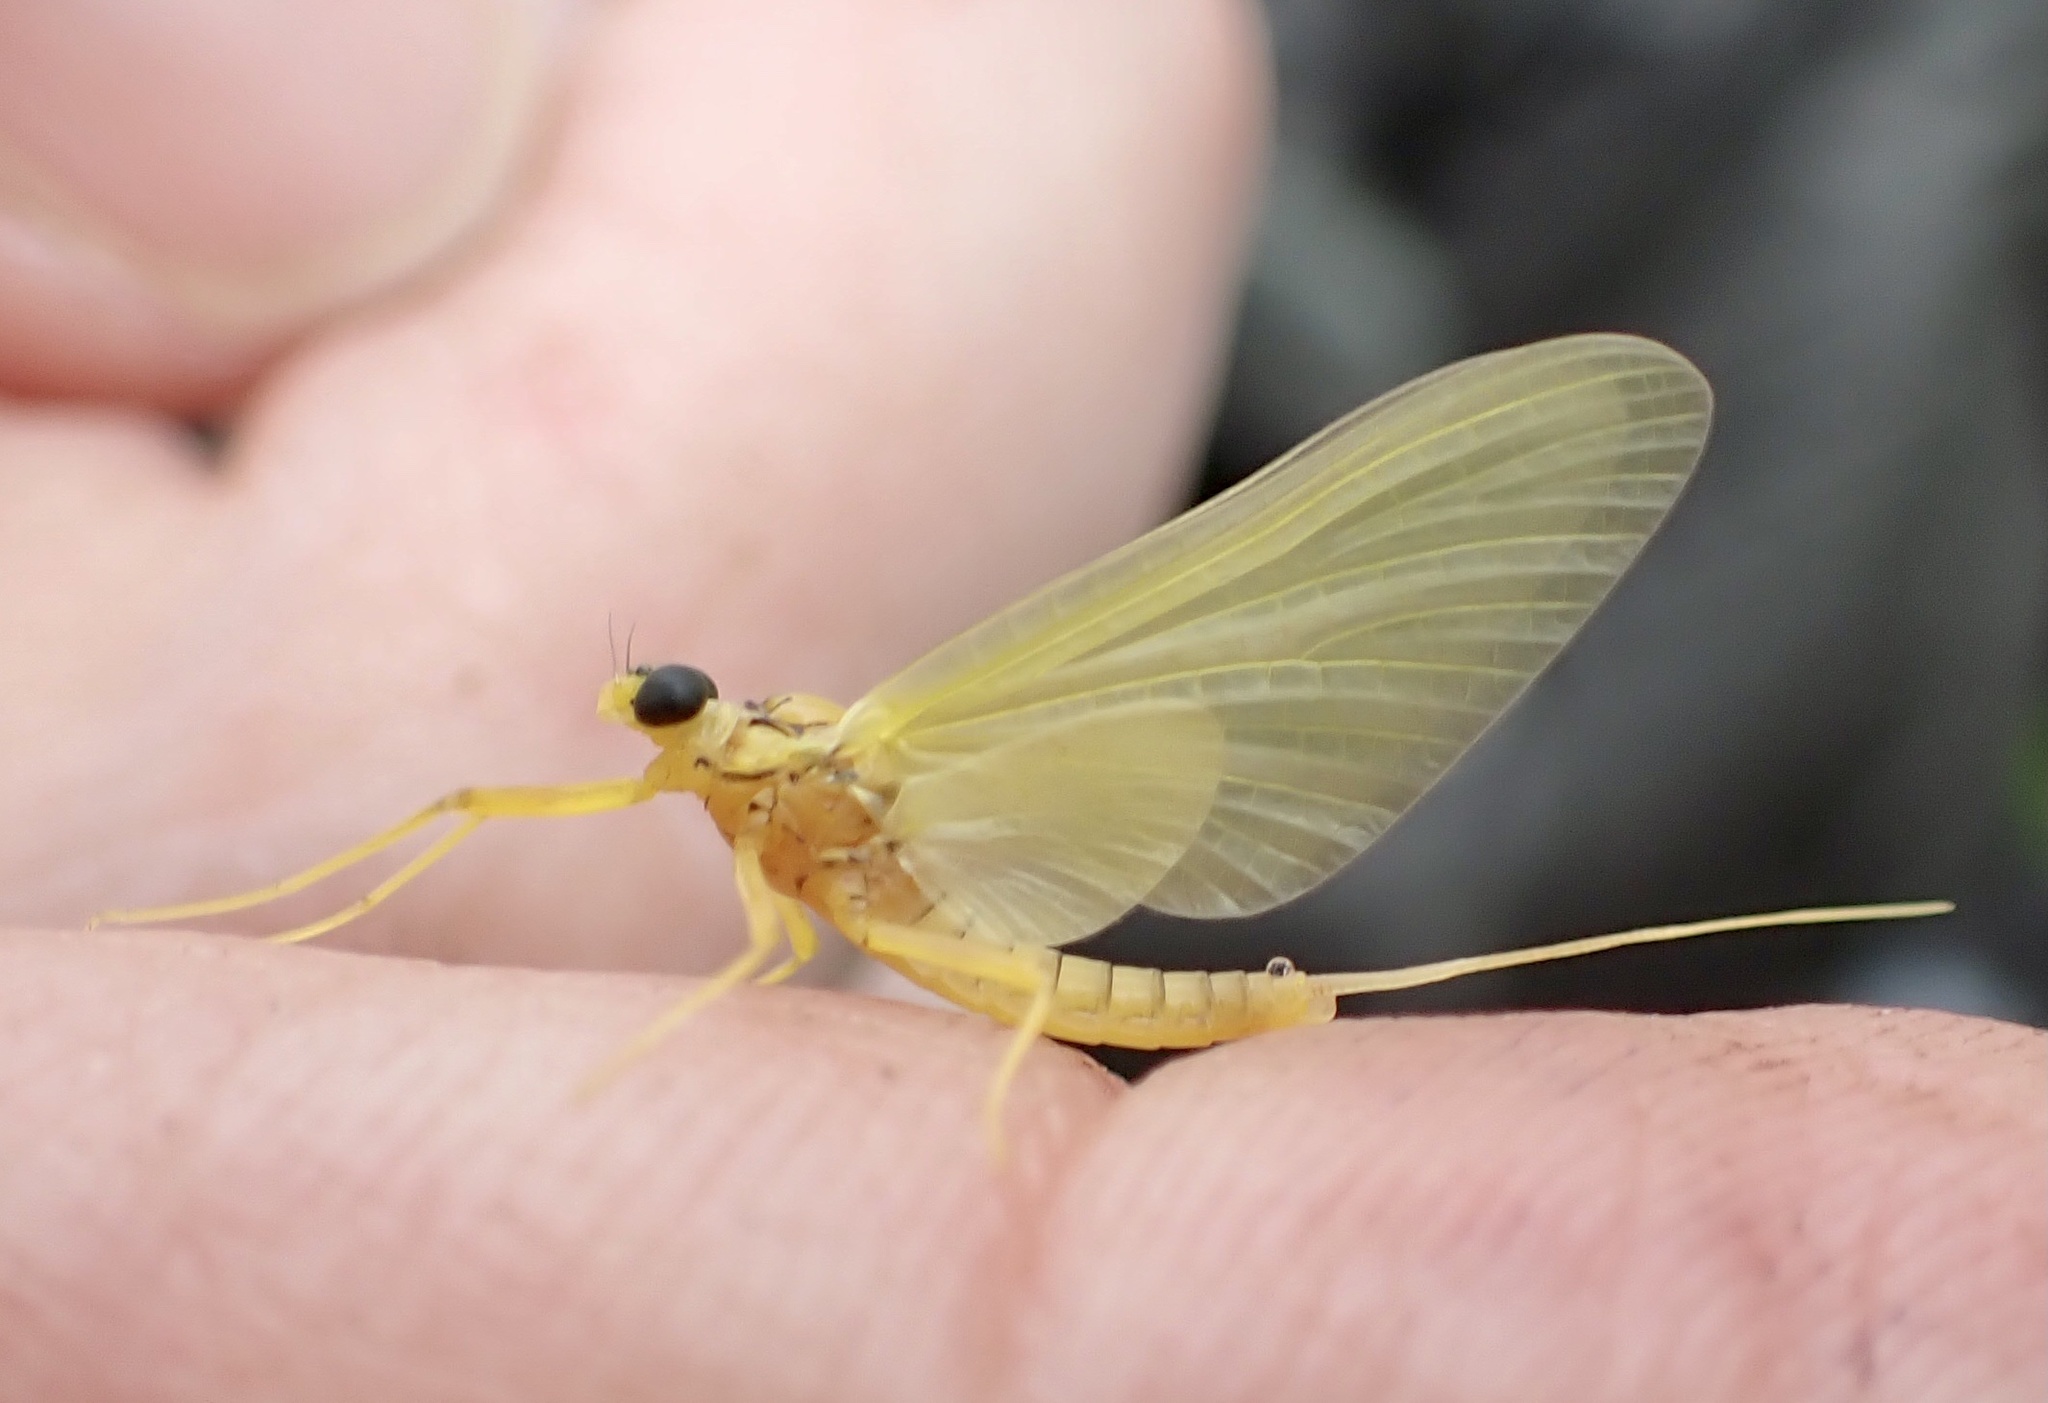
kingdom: Animalia
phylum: Arthropoda
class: Insecta
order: Ephemeroptera
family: Heptageniidae
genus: Heptagenia
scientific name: Heptagenia sulphurea
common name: Yellow may dun
